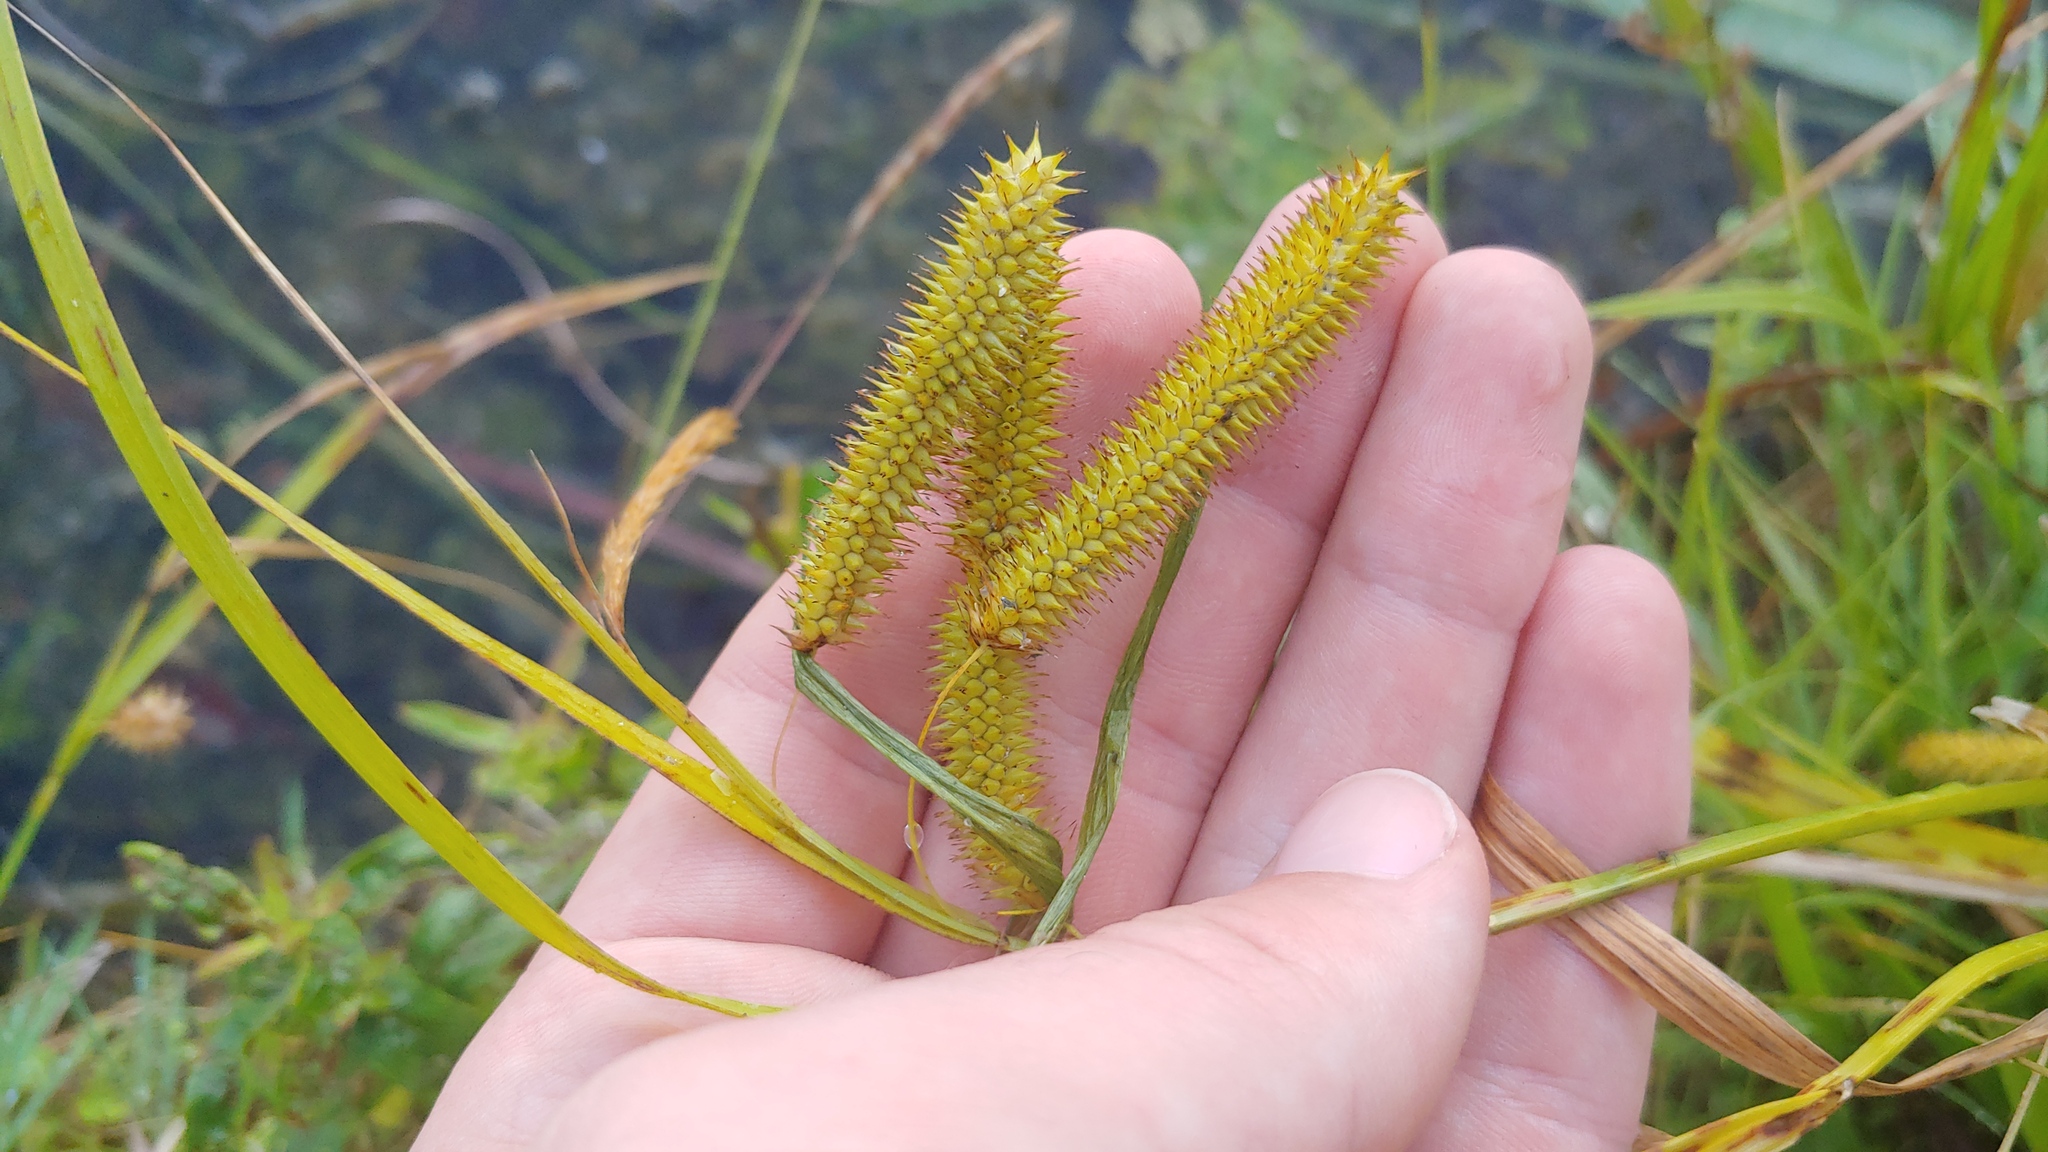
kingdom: Plantae
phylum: Tracheophyta
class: Liliopsida
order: Poales
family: Cyperaceae
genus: Carex
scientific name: Carex pseudocyperus
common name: Cyperus sedge
